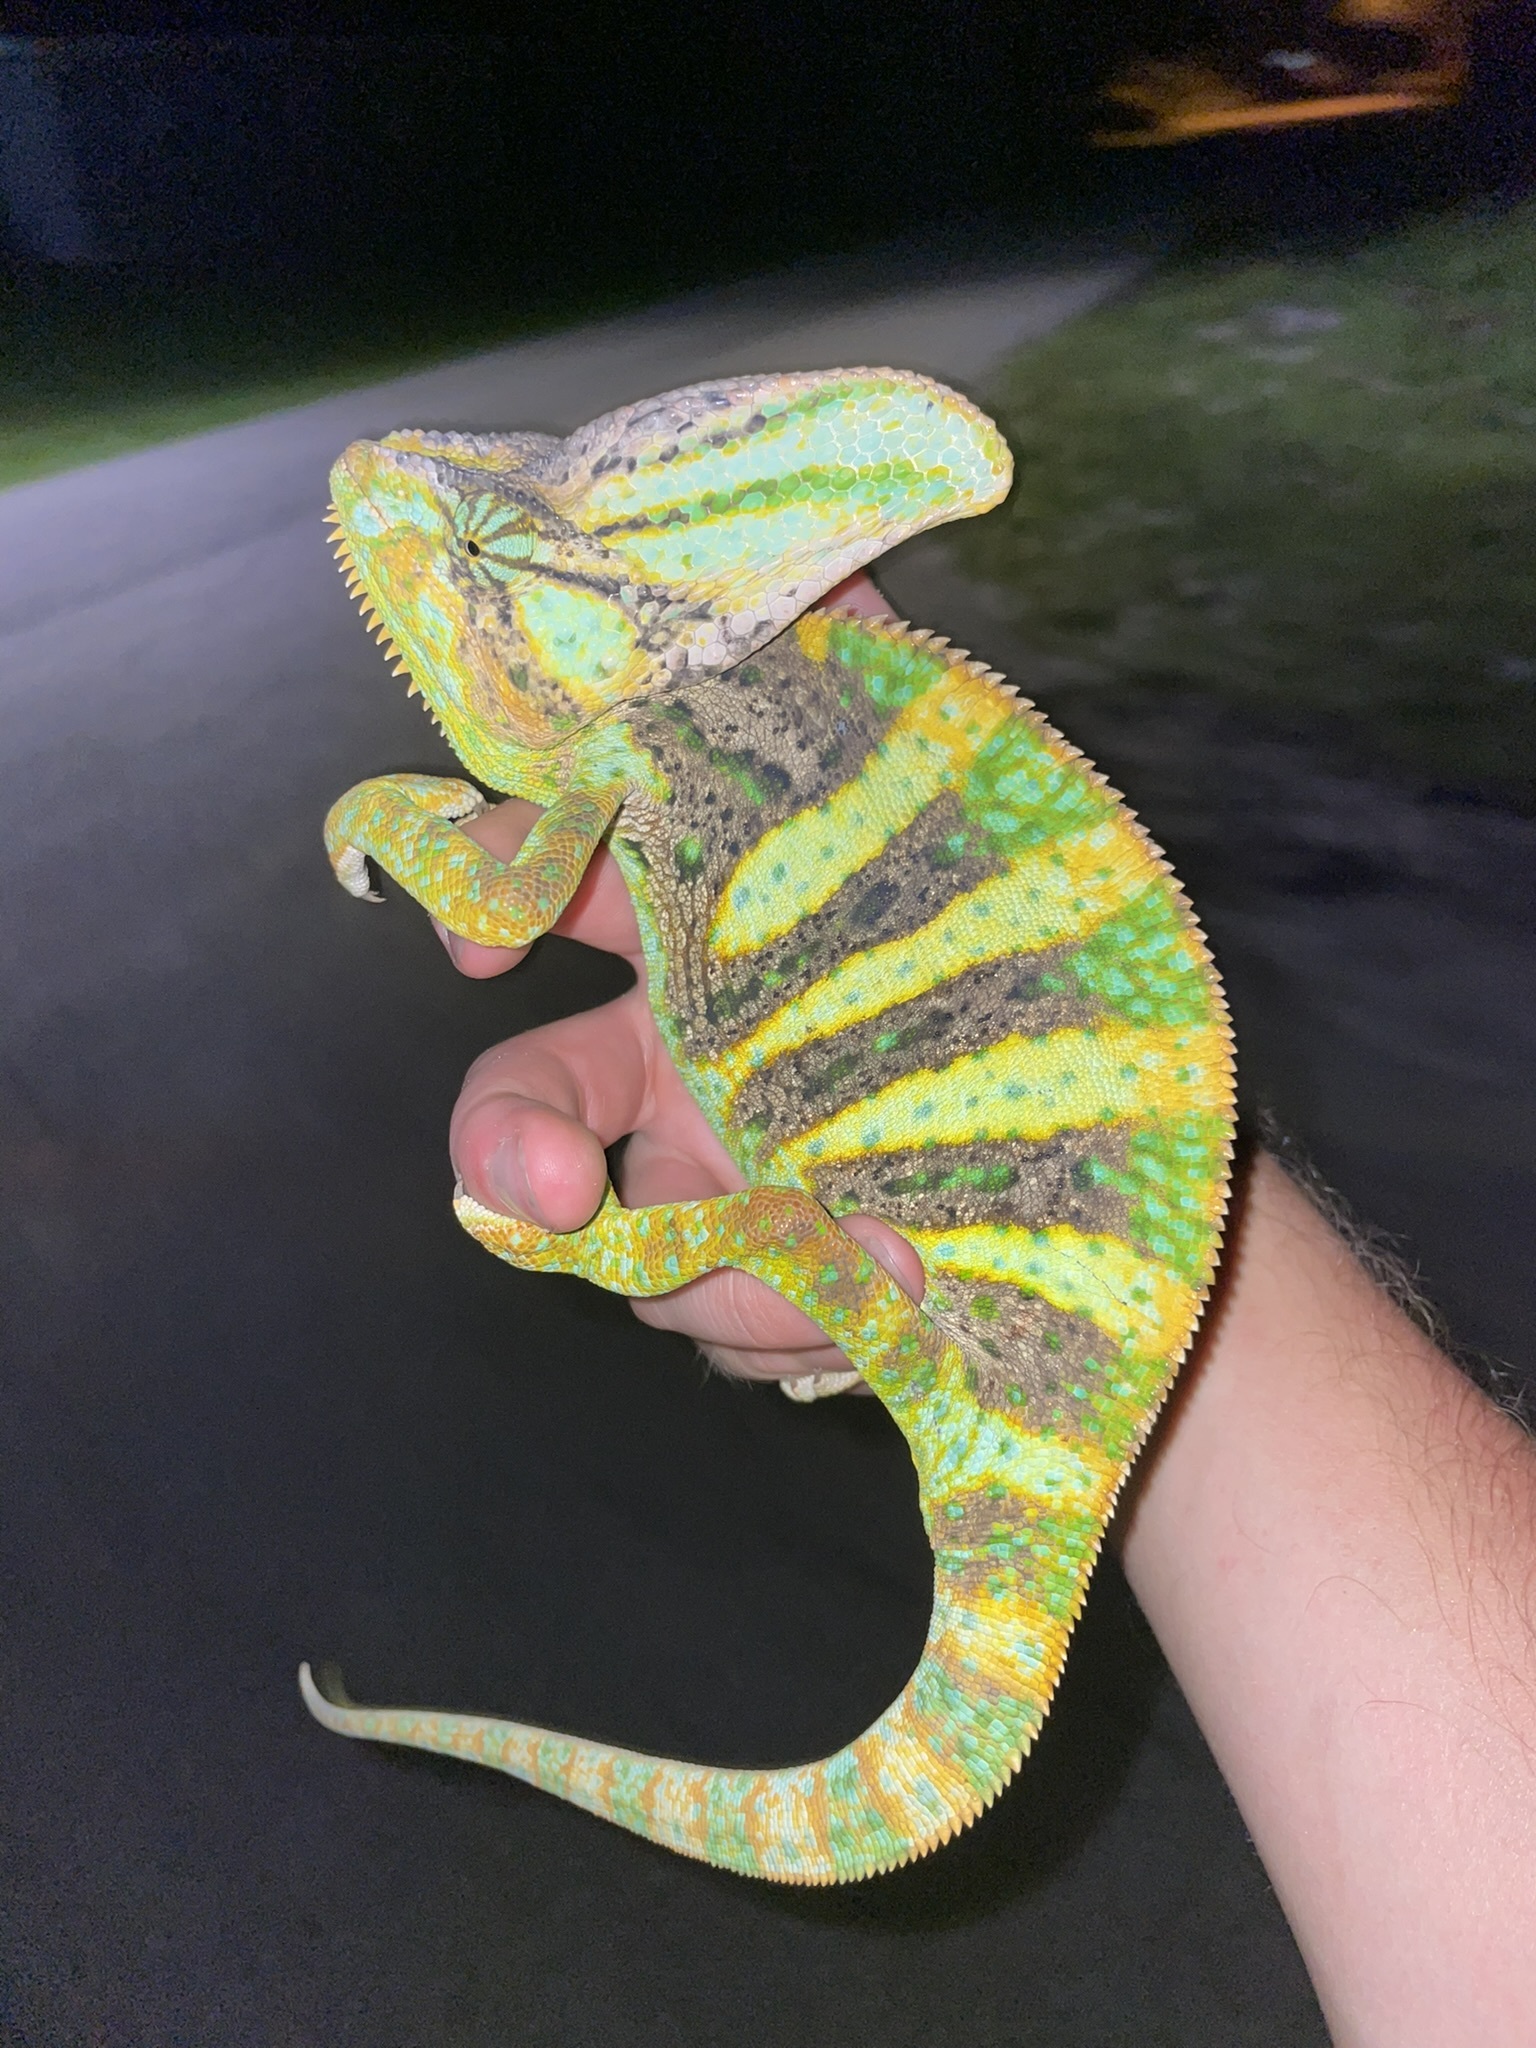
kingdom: Animalia
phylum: Chordata
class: Squamata
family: Chamaeleonidae
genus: Chamaeleo
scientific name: Chamaeleo calyptratus
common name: Veiled chameleon
